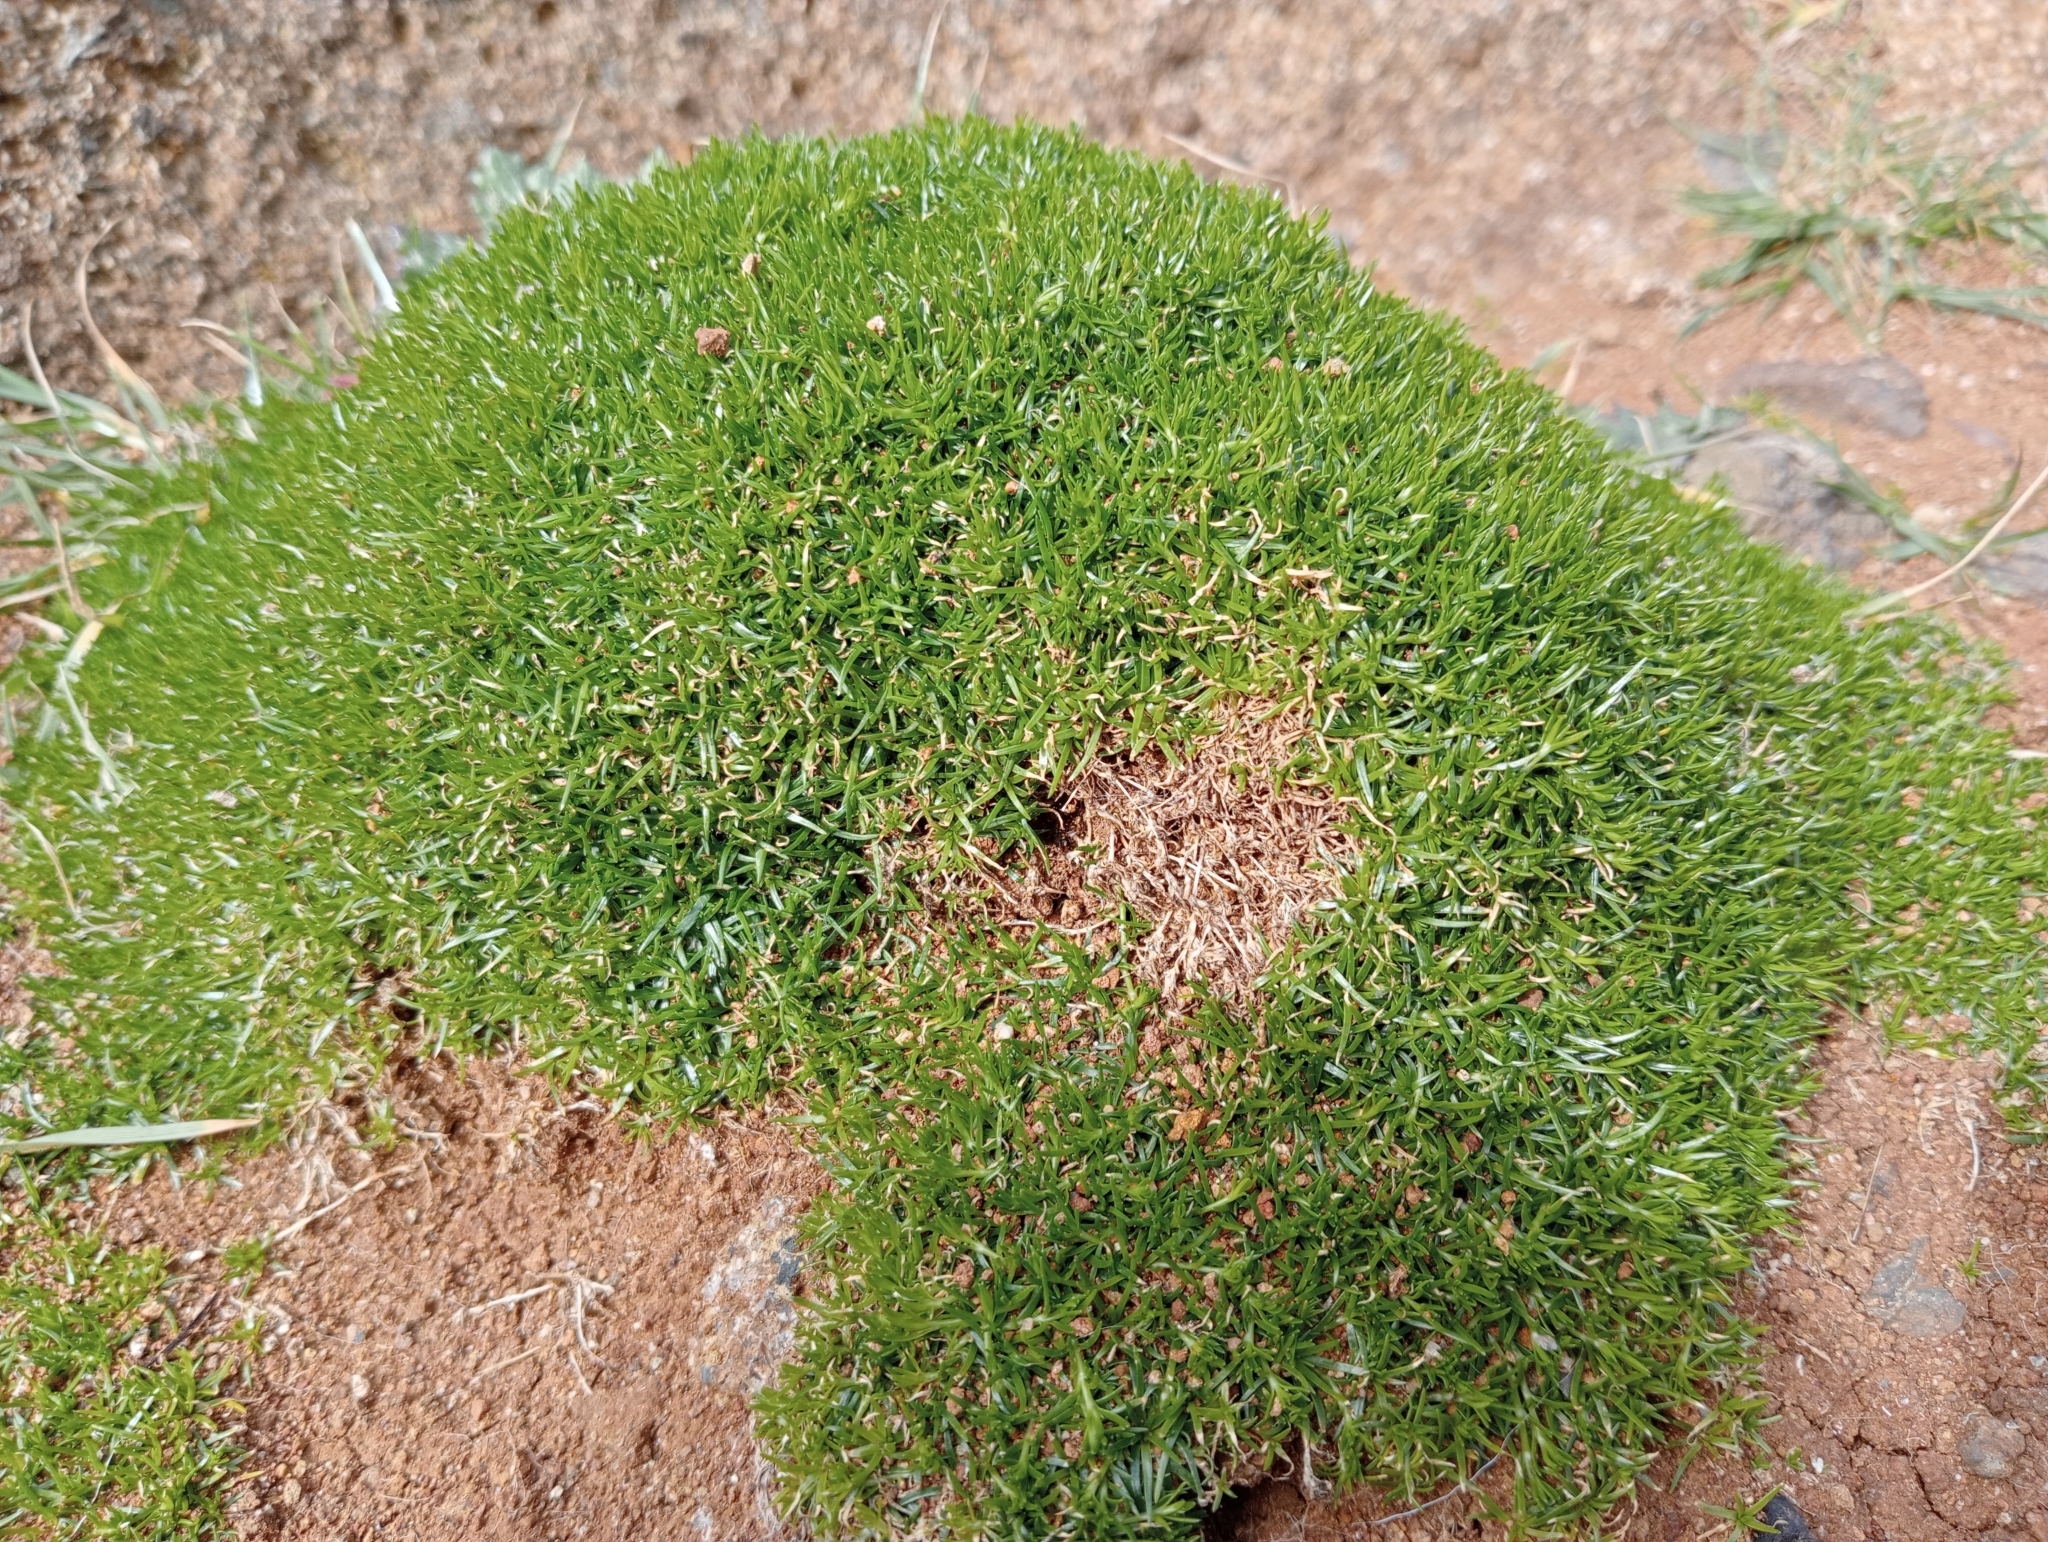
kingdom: Plantae
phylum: Tracheophyta
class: Magnoliopsida
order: Caryophyllales
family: Caryophyllaceae
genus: Sagina
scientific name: Sagina procumbens
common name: Procumbent pearlwort
